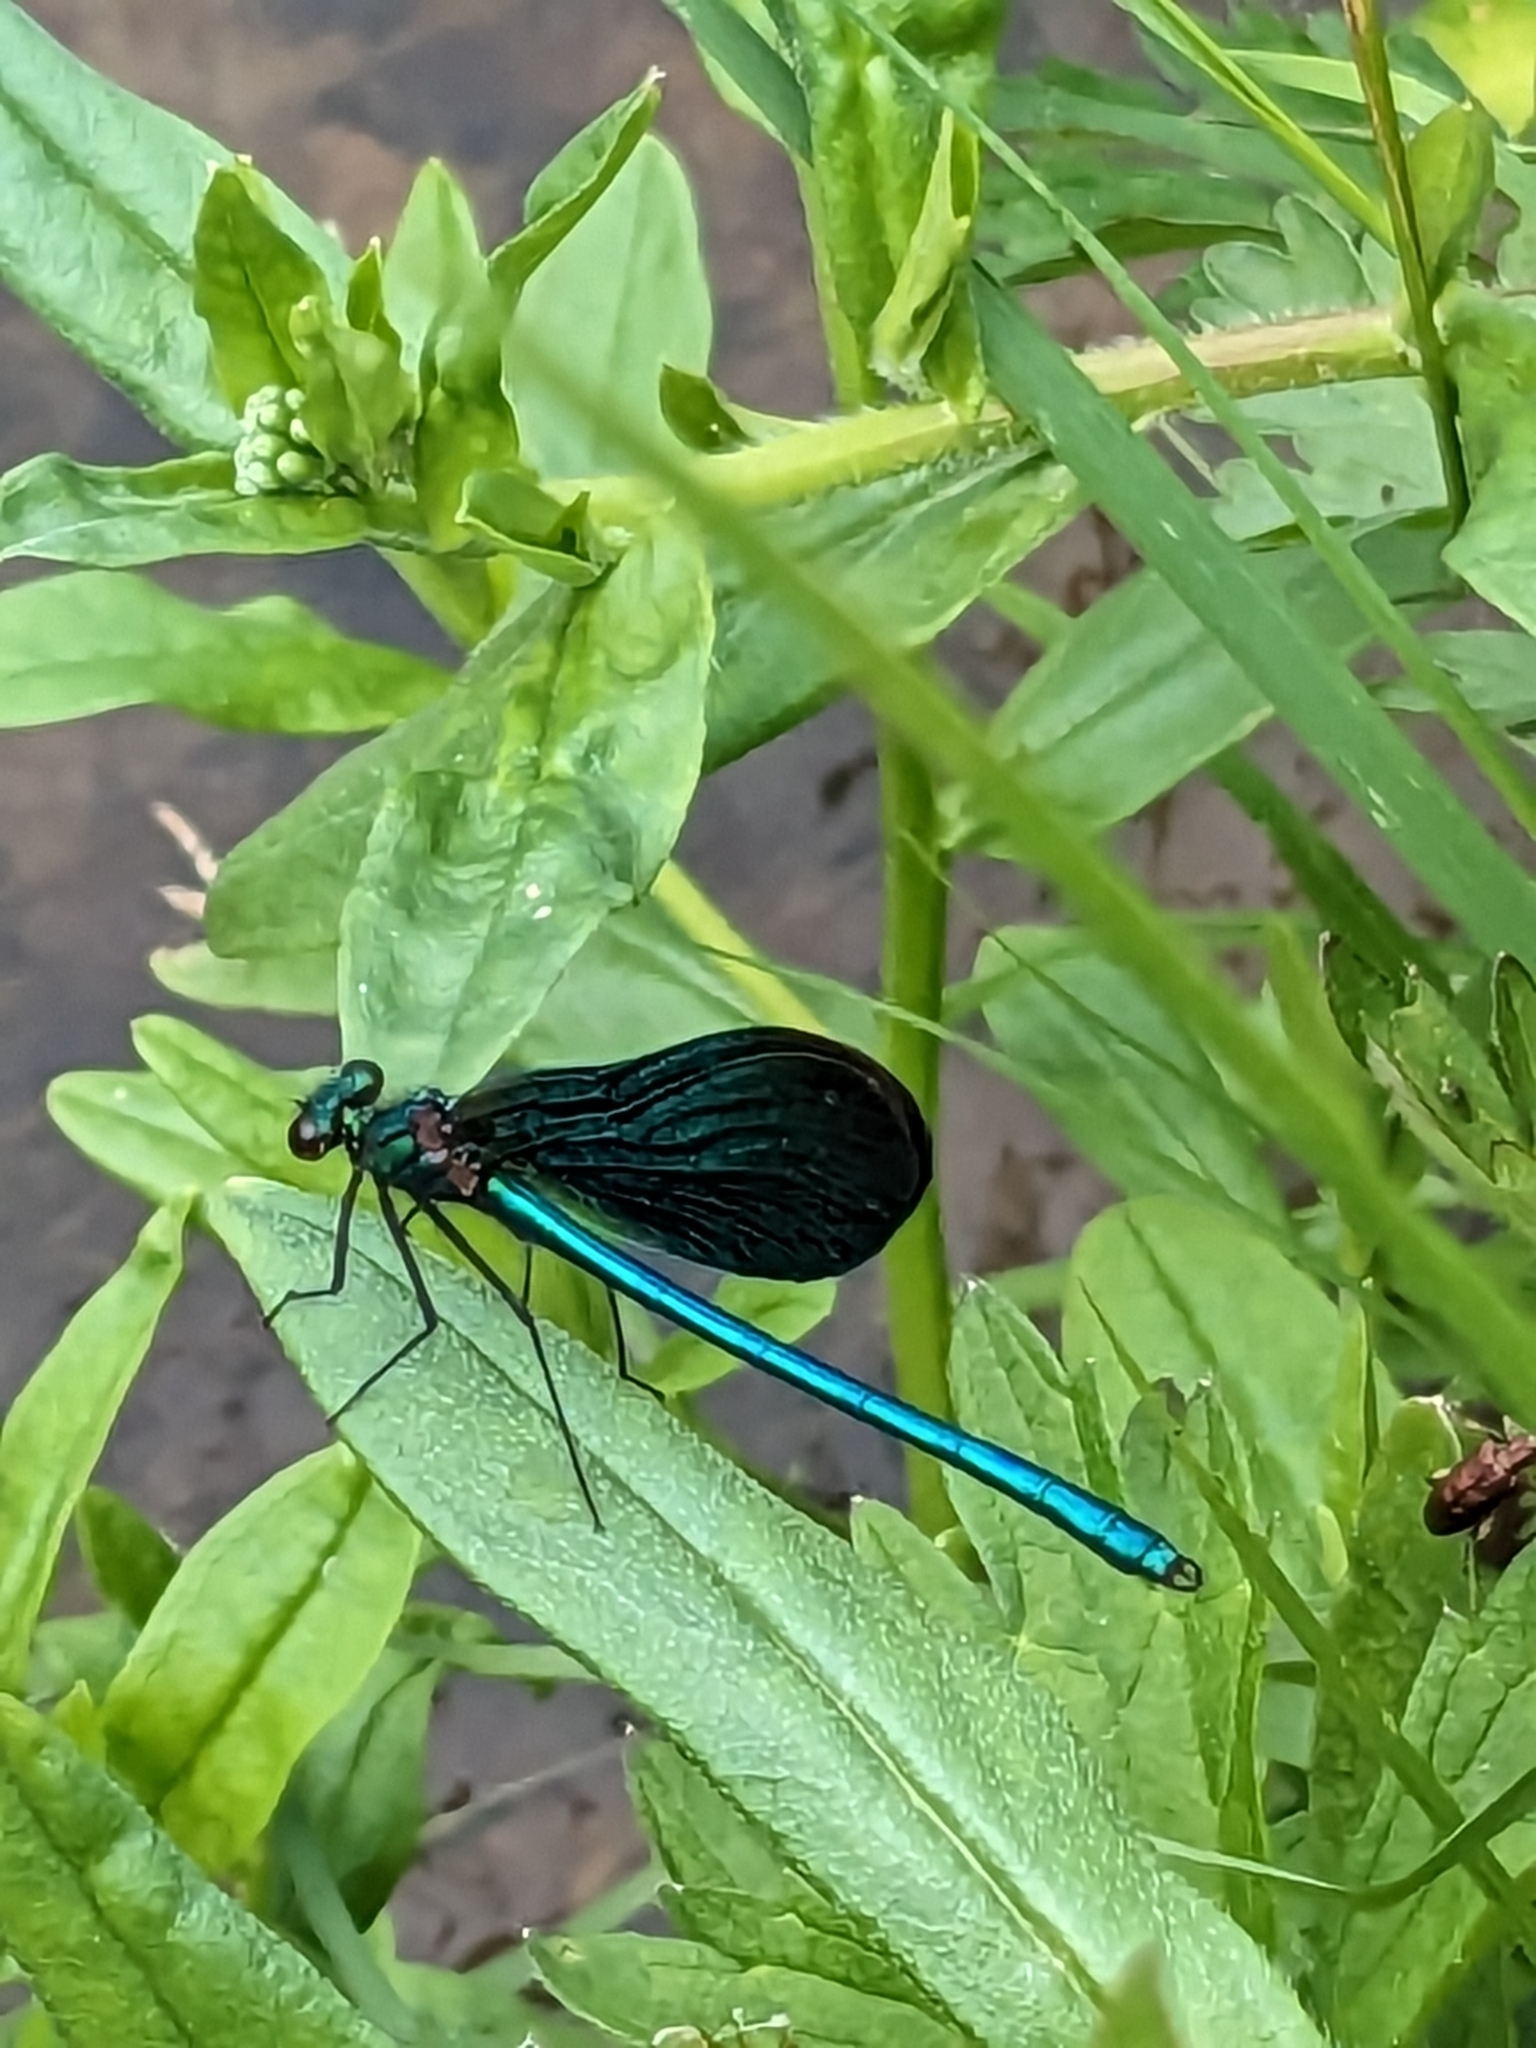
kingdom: Animalia
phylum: Arthropoda
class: Insecta
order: Odonata
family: Calopterygidae
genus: Calopteryx
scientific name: Calopteryx virgo
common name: Beautiful demoiselle
